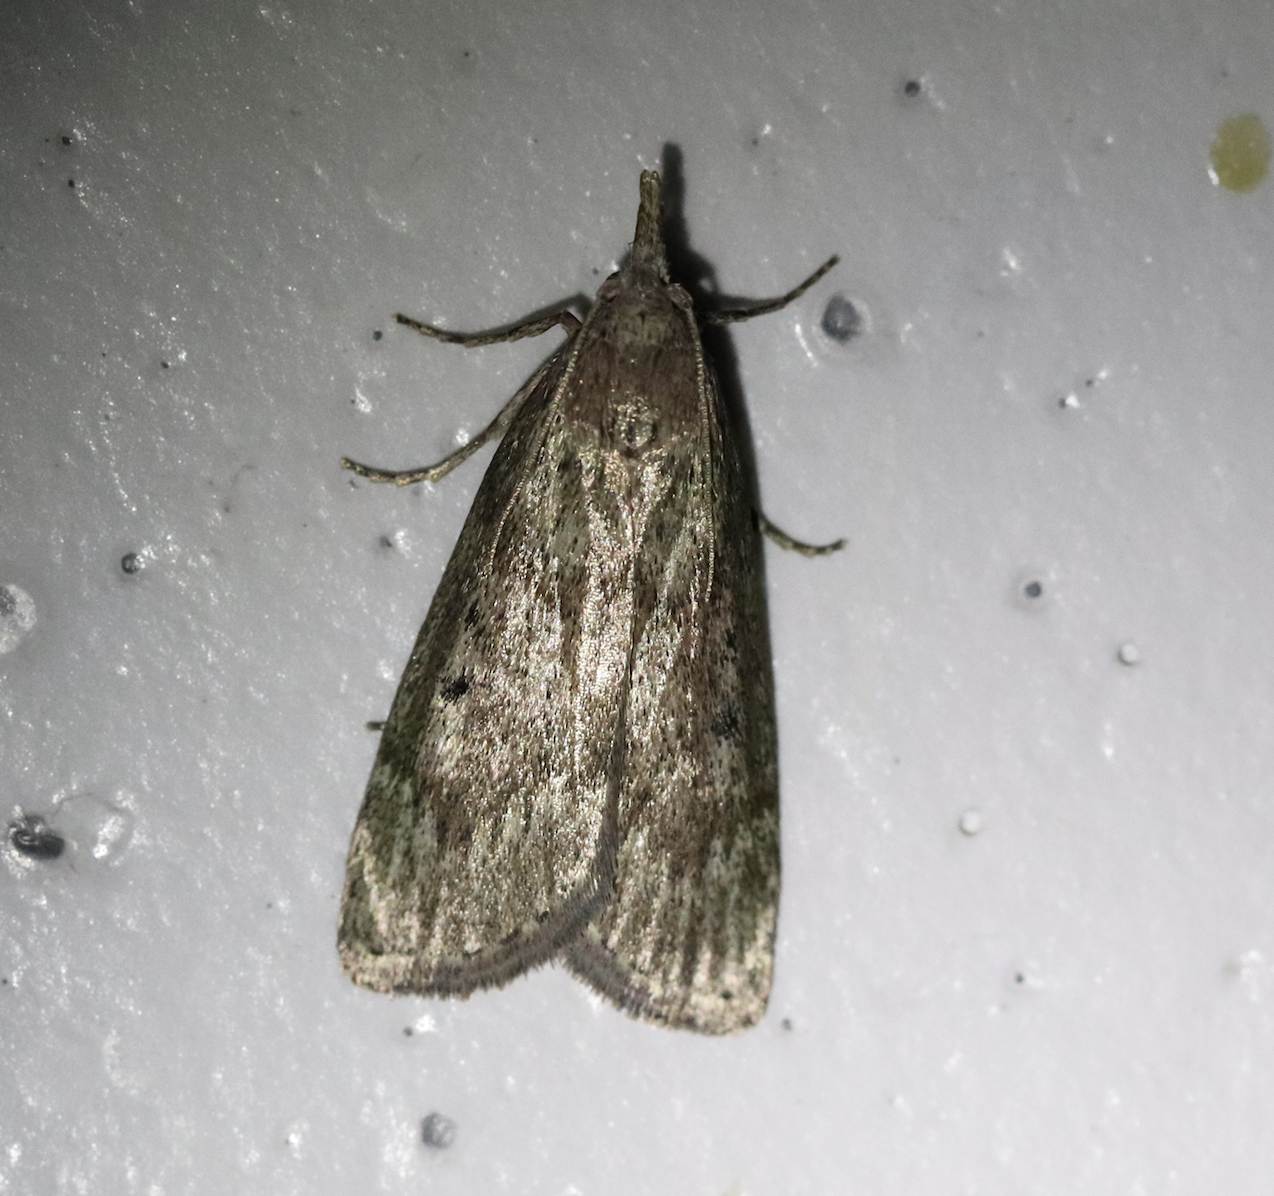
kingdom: Animalia
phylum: Arthropoda
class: Insecta
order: Lepidoptera
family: Pyralidae
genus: Aphomia
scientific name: Aphomia sociella
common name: Bee moth
